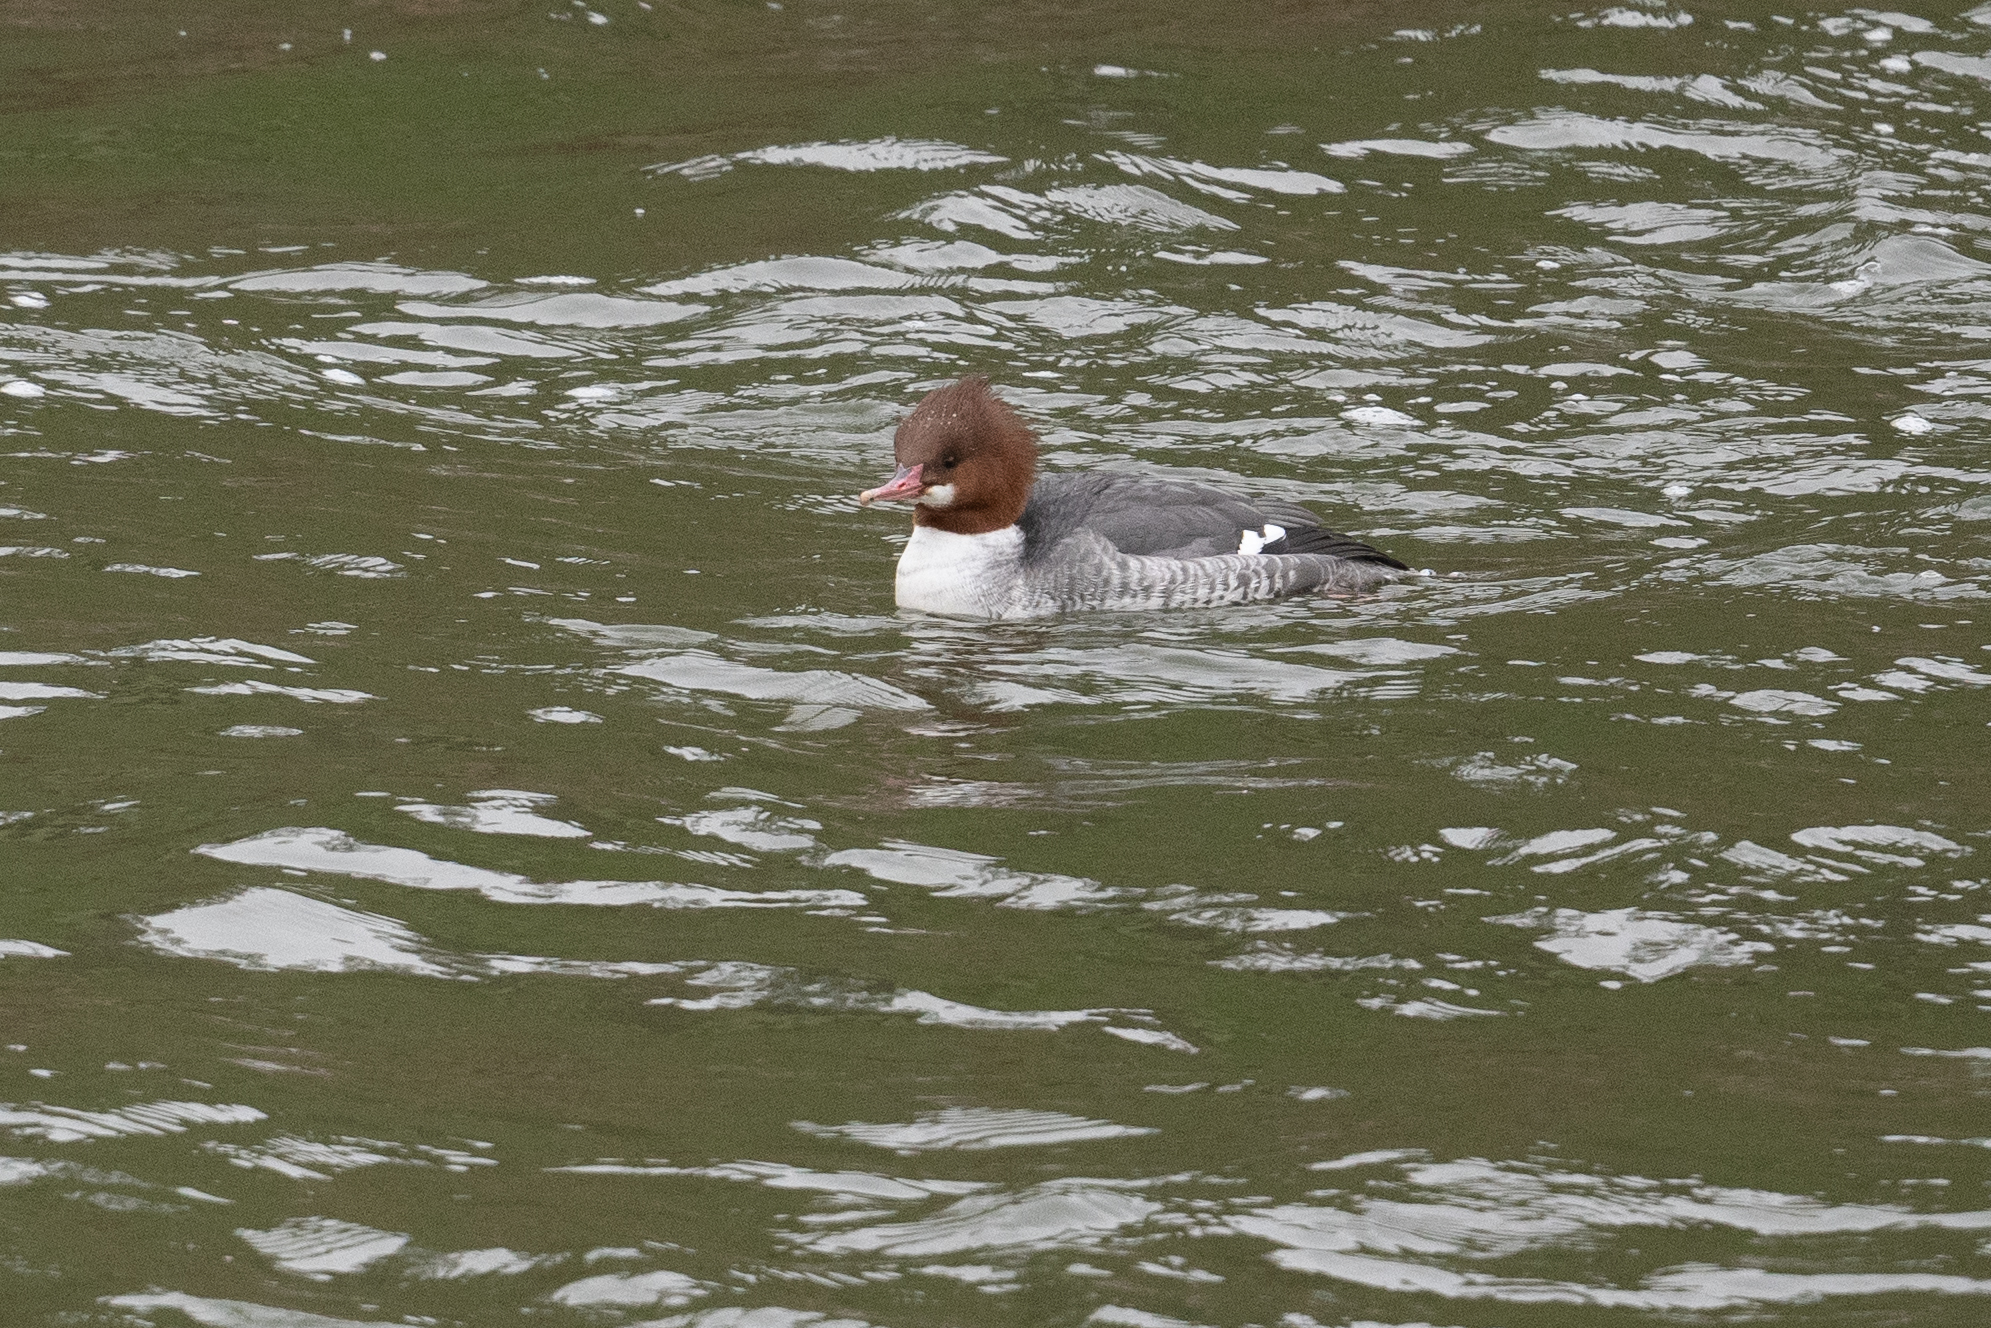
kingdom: Animalia
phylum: Chordata
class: Aves
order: Anseriformes
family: Anatidae
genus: Mergus
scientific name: Mergus merganser
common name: Common merganser
